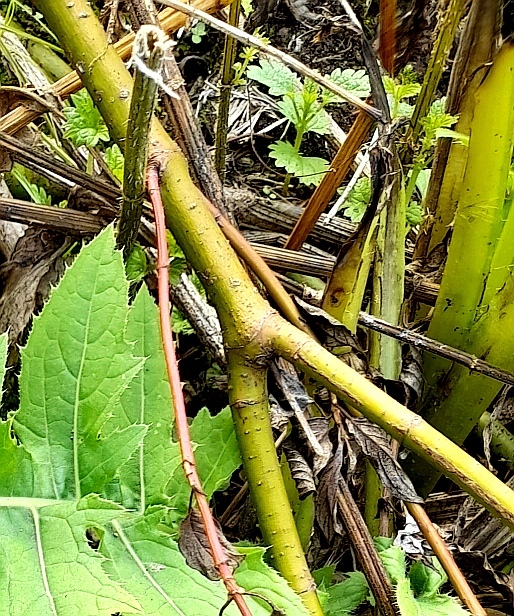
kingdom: Plantae
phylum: Tracheophyta
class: Magnoliopsida
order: Cornales
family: Cornaceae
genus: Cornus
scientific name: Cornus alba
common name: White dogwood
